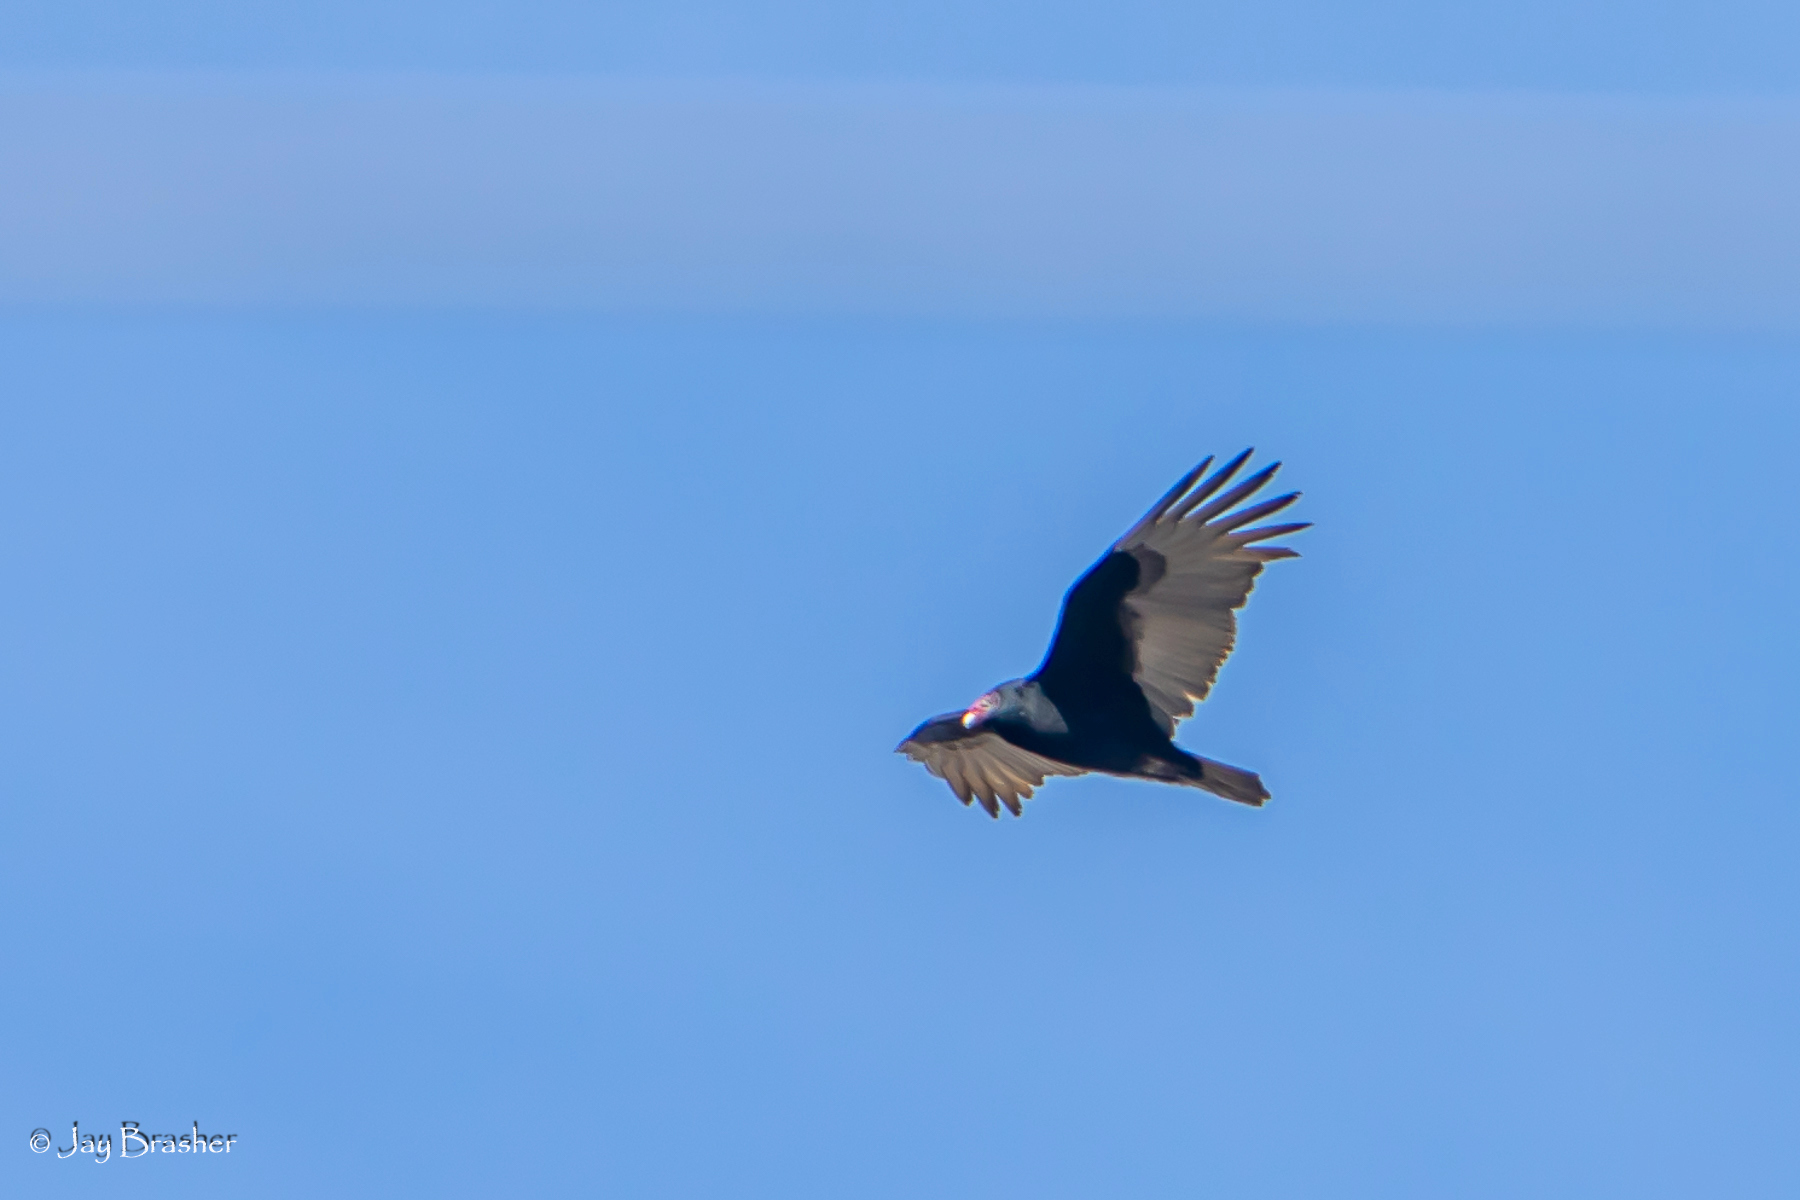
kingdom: Animalia
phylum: Chordata
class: Aves
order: Accipitriformes
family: Cathartidae
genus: Cathartes
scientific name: Cathartes aura
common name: Turkey vulture
